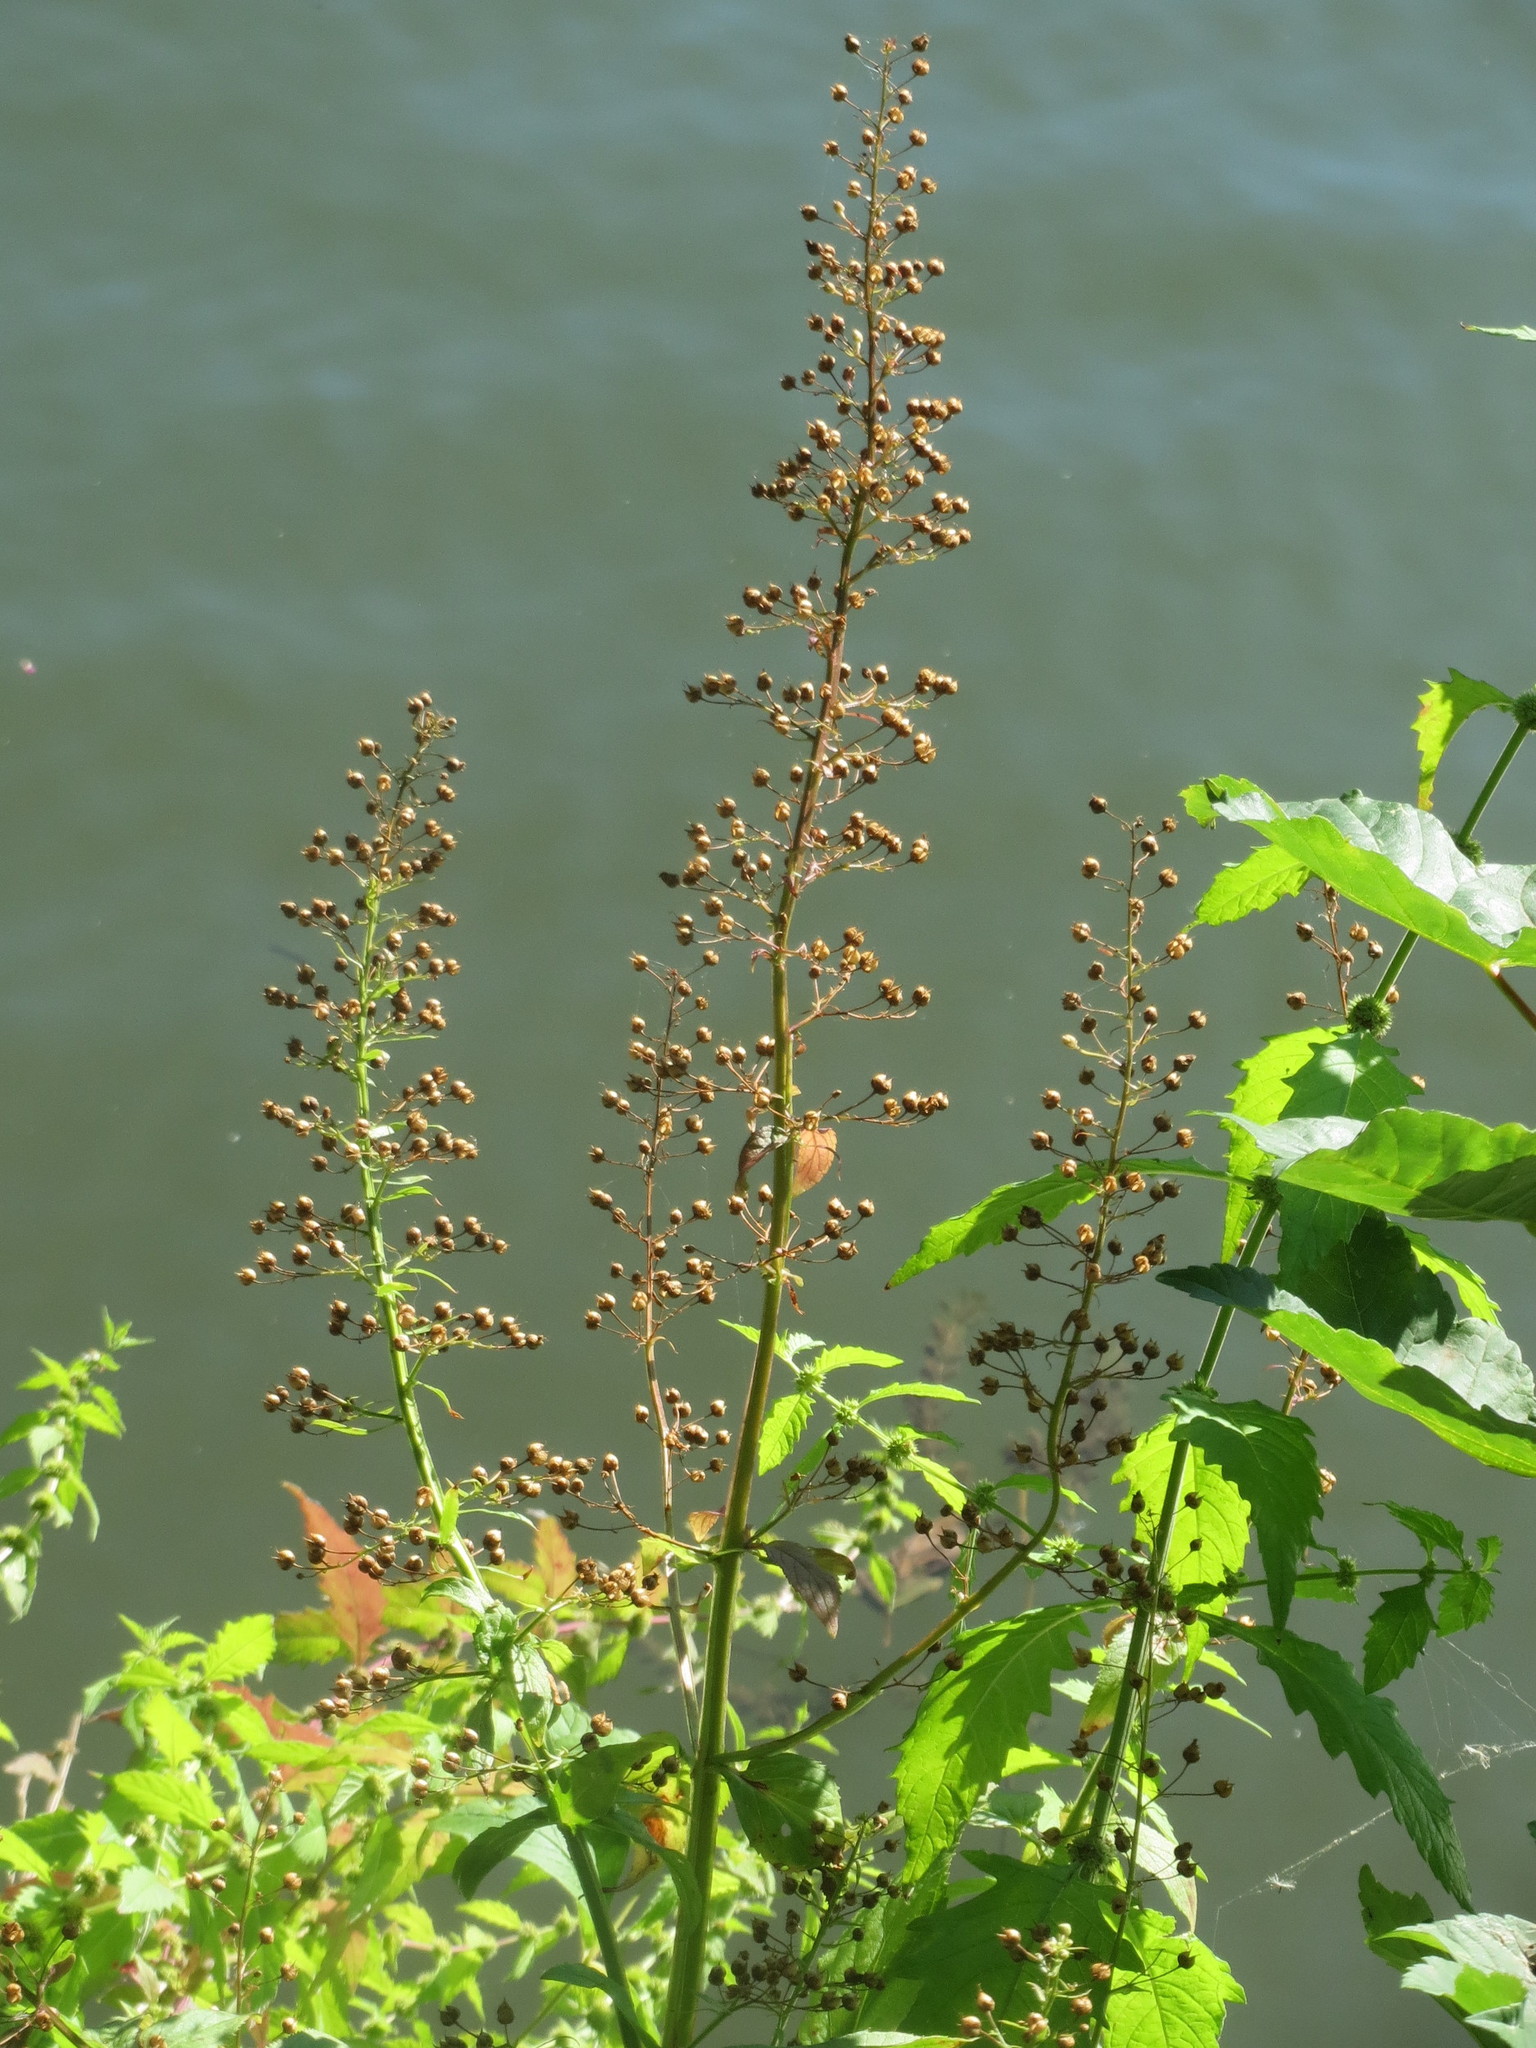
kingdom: Plantae
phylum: Tracheophyta
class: Magnoliopsida
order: Lamiales
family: Scrophulariaceae
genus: Scrophularia
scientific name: Scrophularia umbrosa
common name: Green figwort
